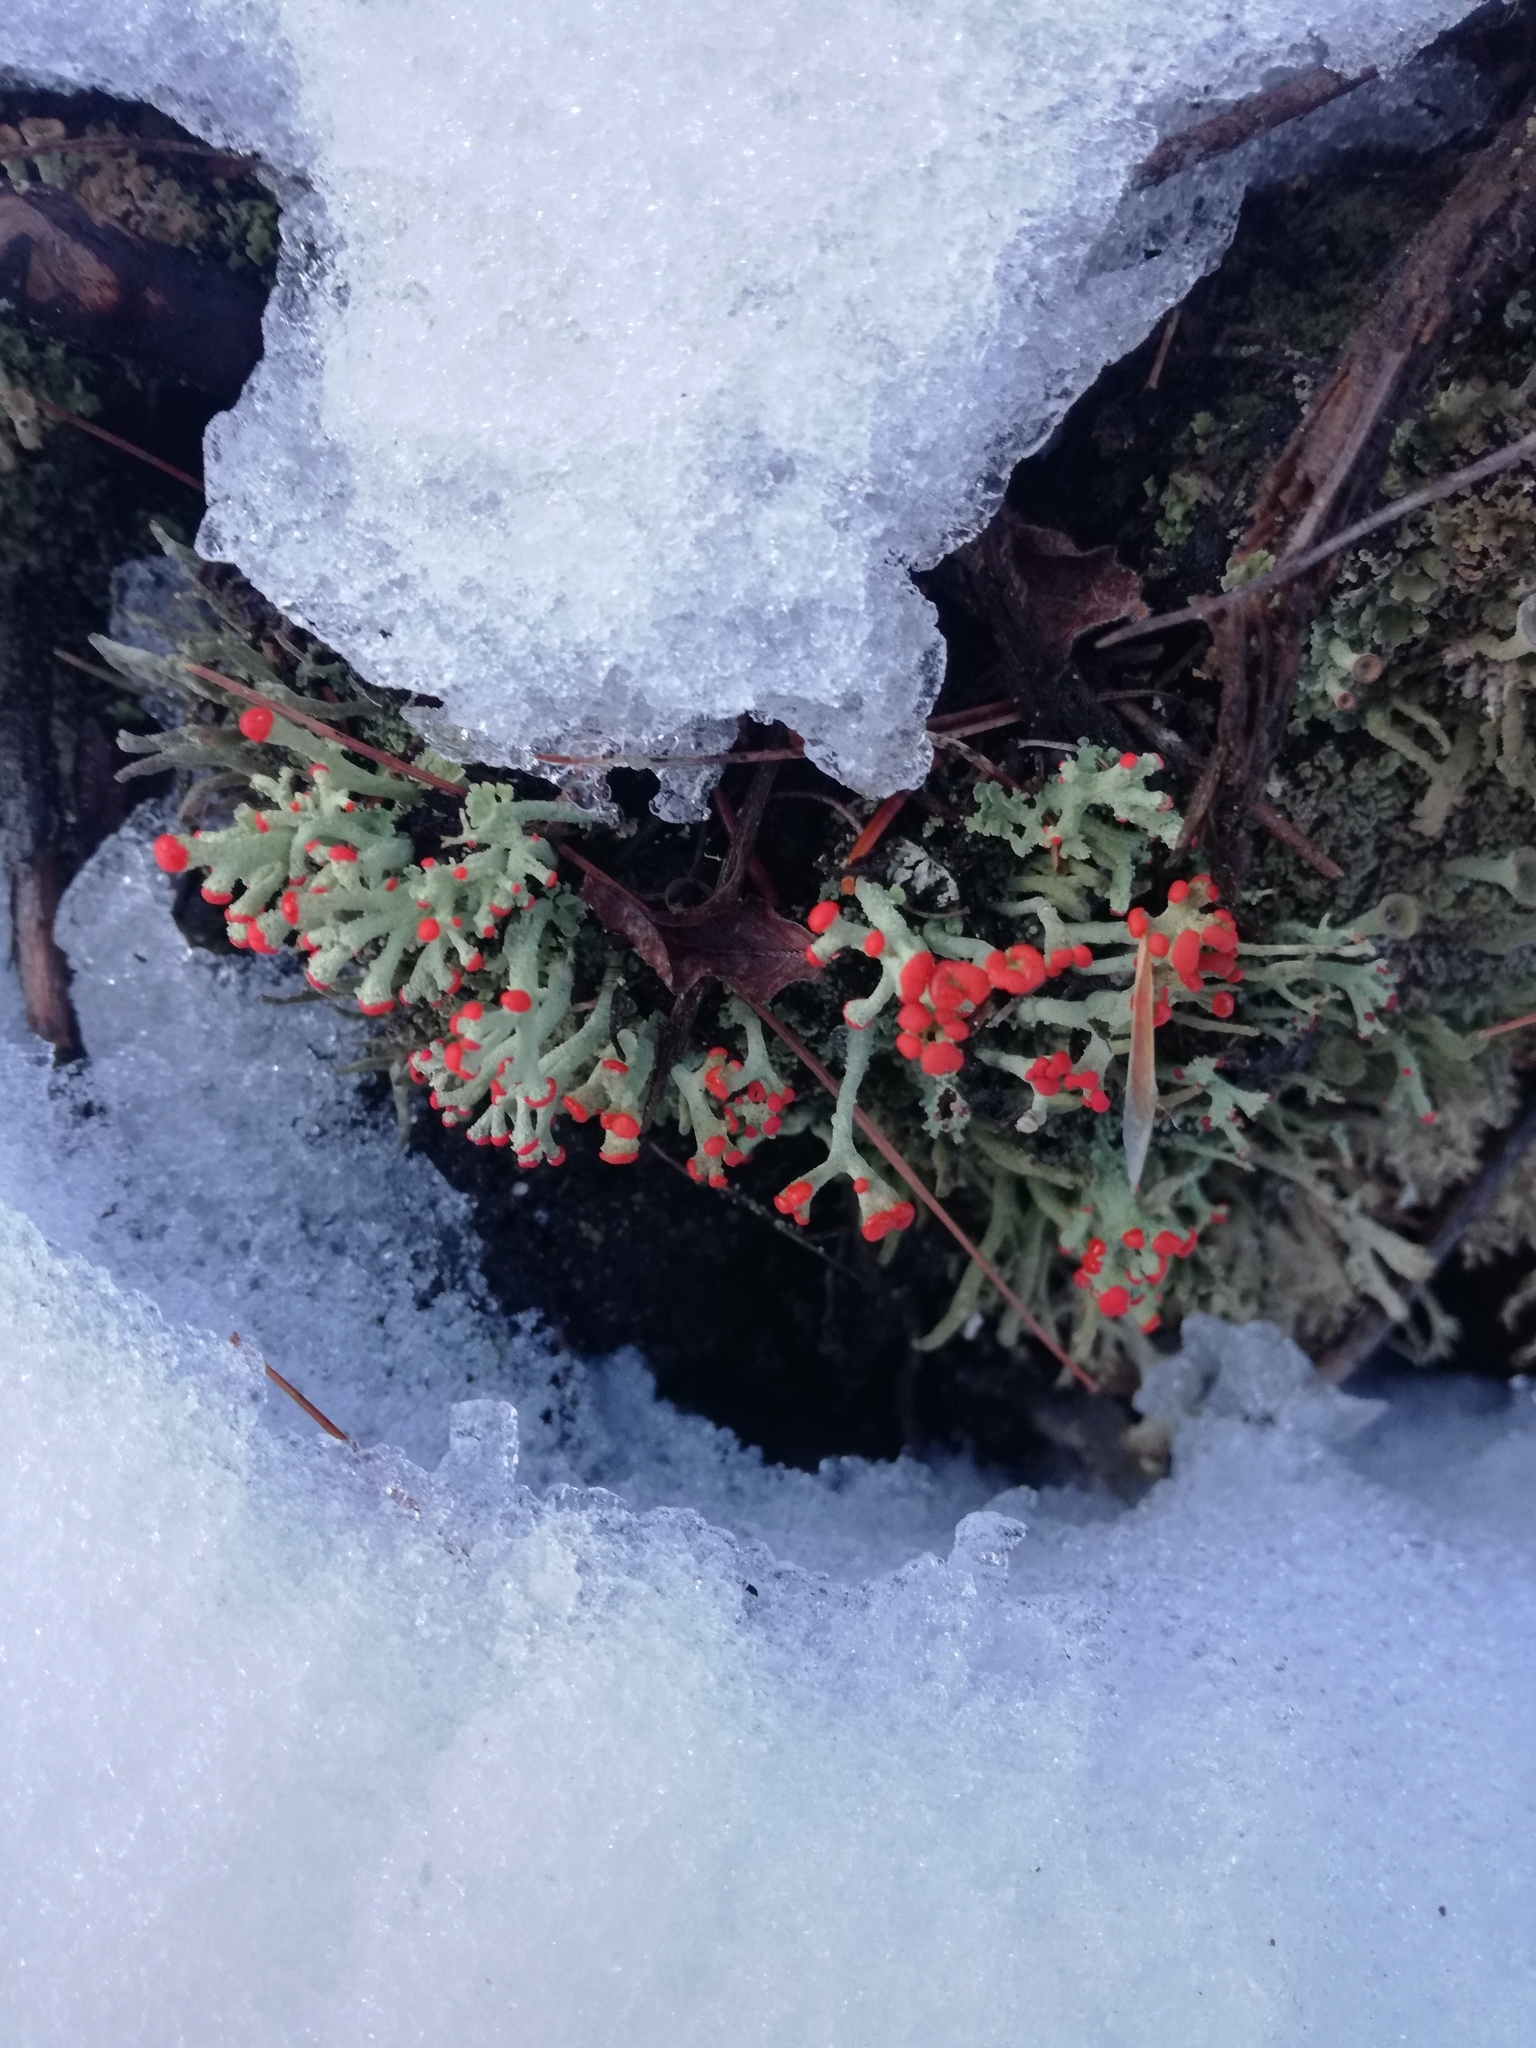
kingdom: Fungi
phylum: Ascomycota
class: Lecanoromycetes
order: Lecanorales
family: Cladoniaceae
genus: Cladonia
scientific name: Cladonia cristatella
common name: British soldier lichen
